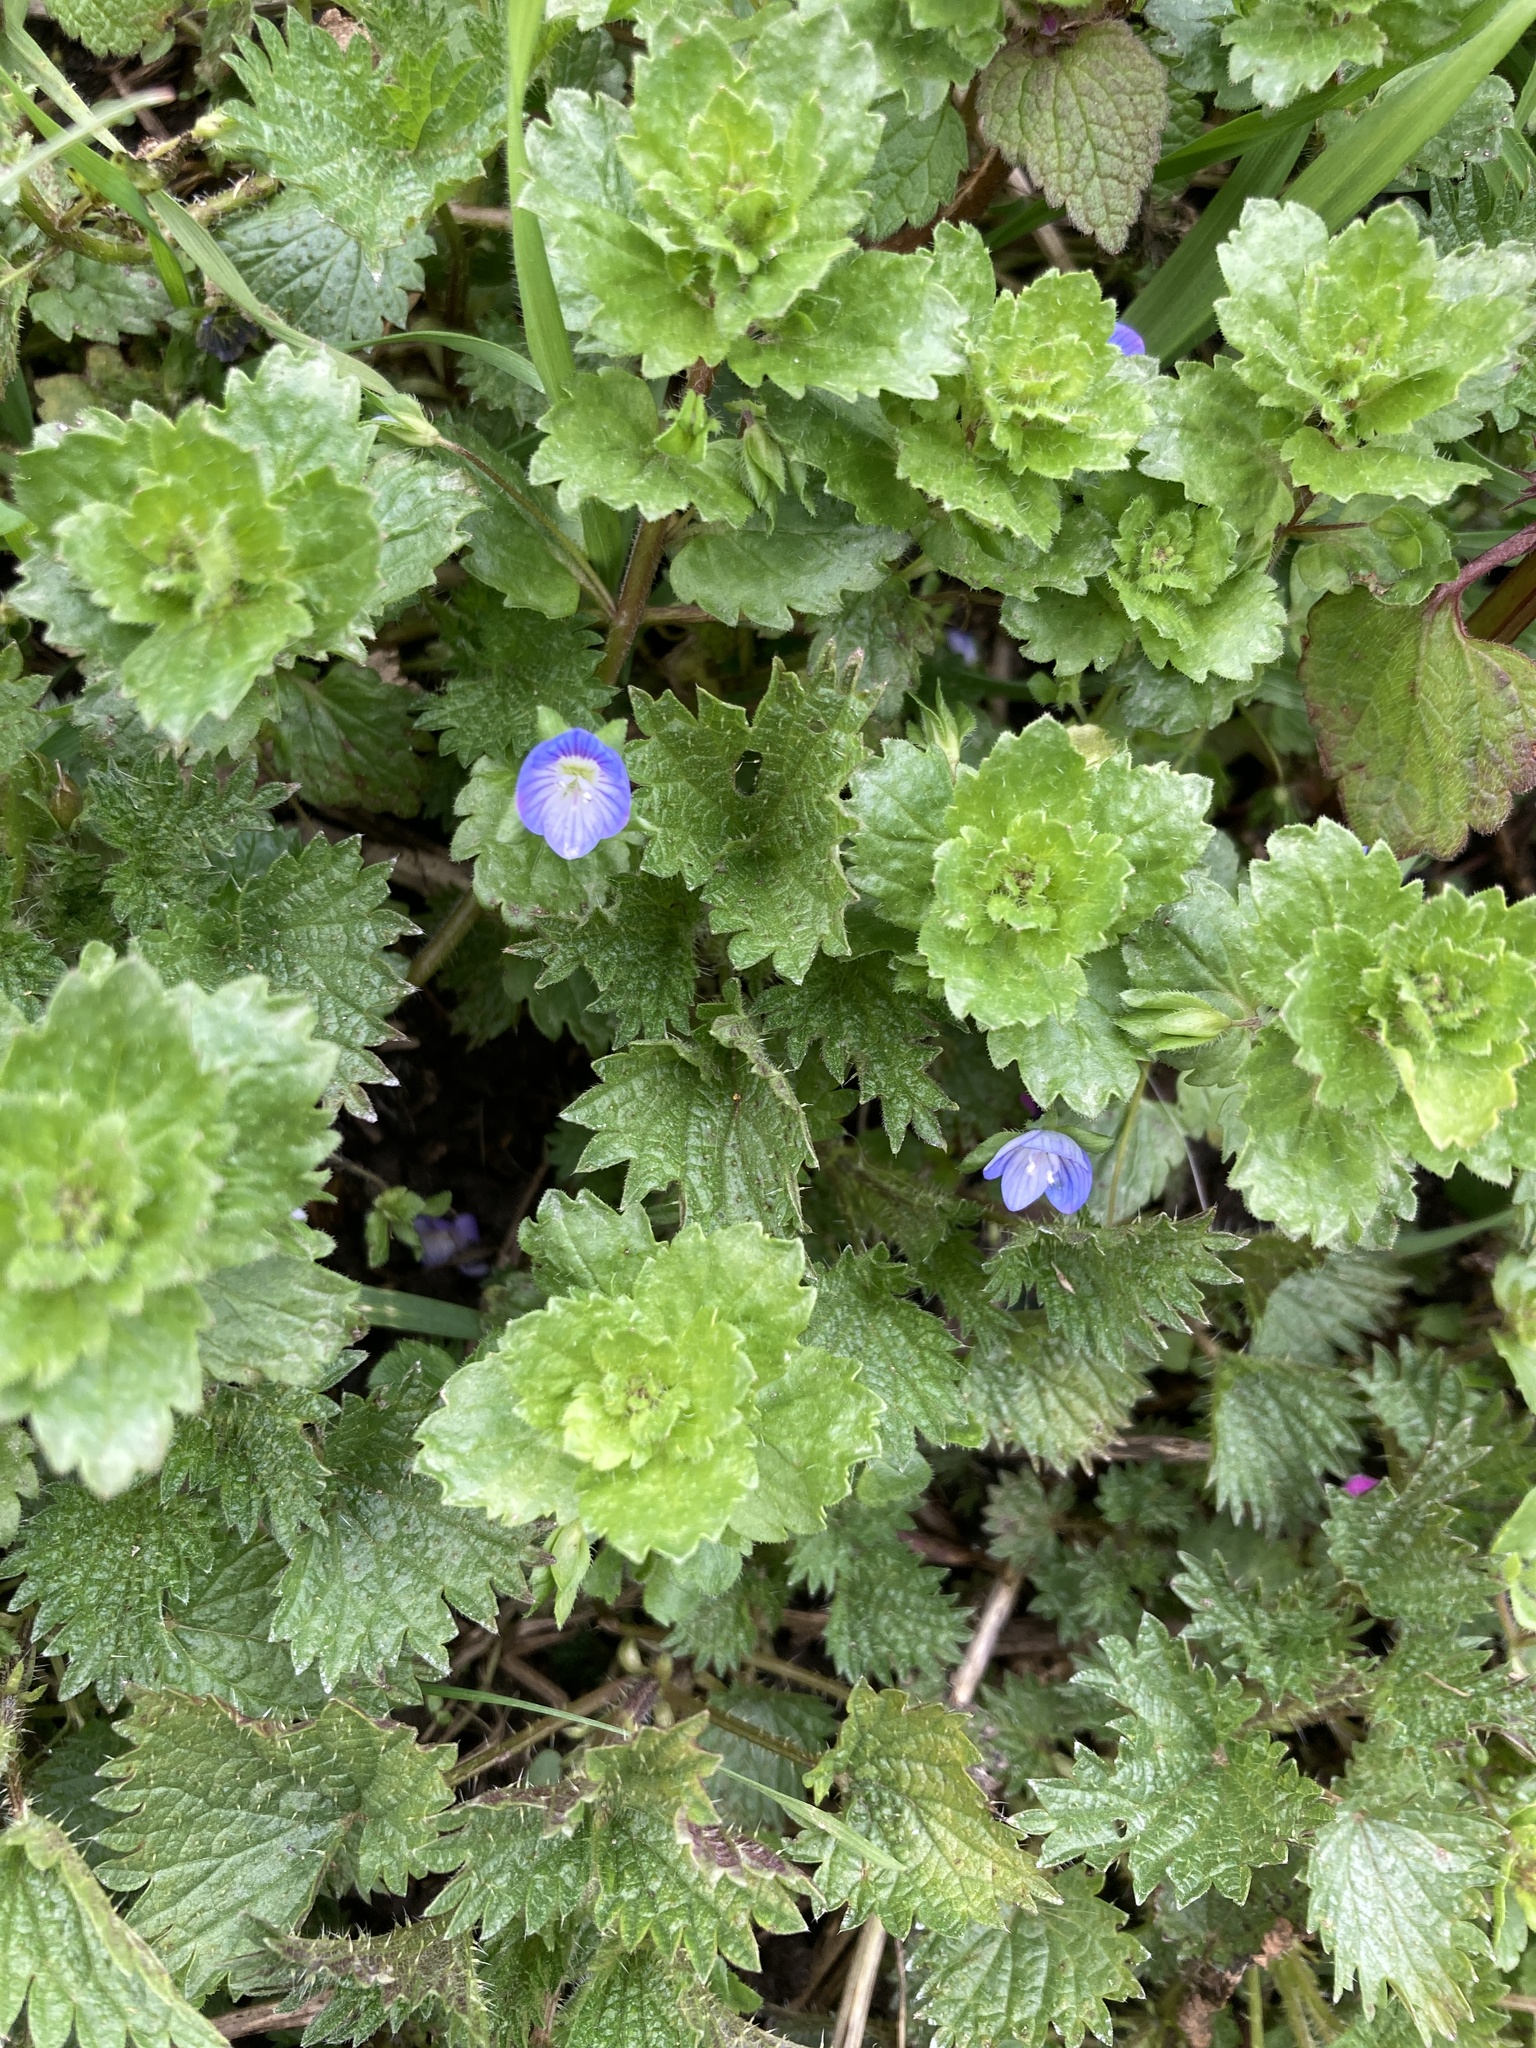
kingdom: Plantae
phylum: Tracheophyta
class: Magnoliopsida
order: Lamiales
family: Plantaginaceae
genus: Veronica
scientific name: Veronica persica
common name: Common field-speedwell
